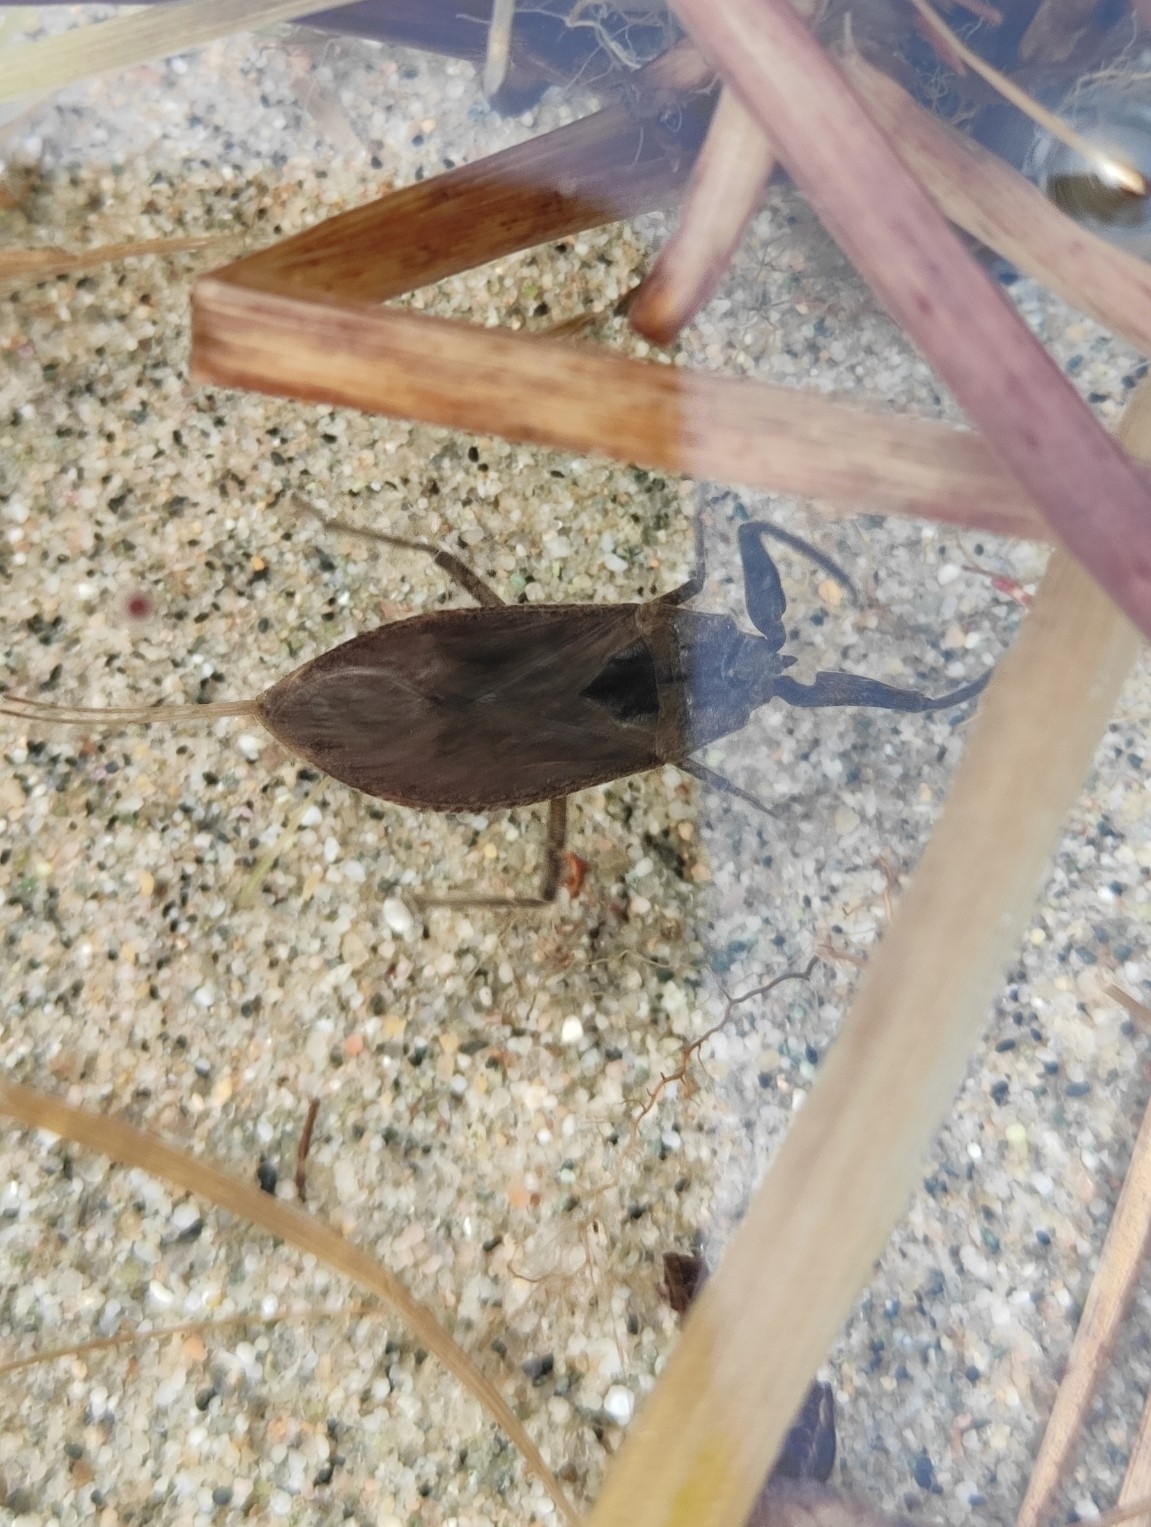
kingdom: Animalia
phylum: Arthropoda
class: Insecta
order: Hemiptera
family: Nepidae
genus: Nepa
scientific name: Nepa cinerea
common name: Water scorpion
